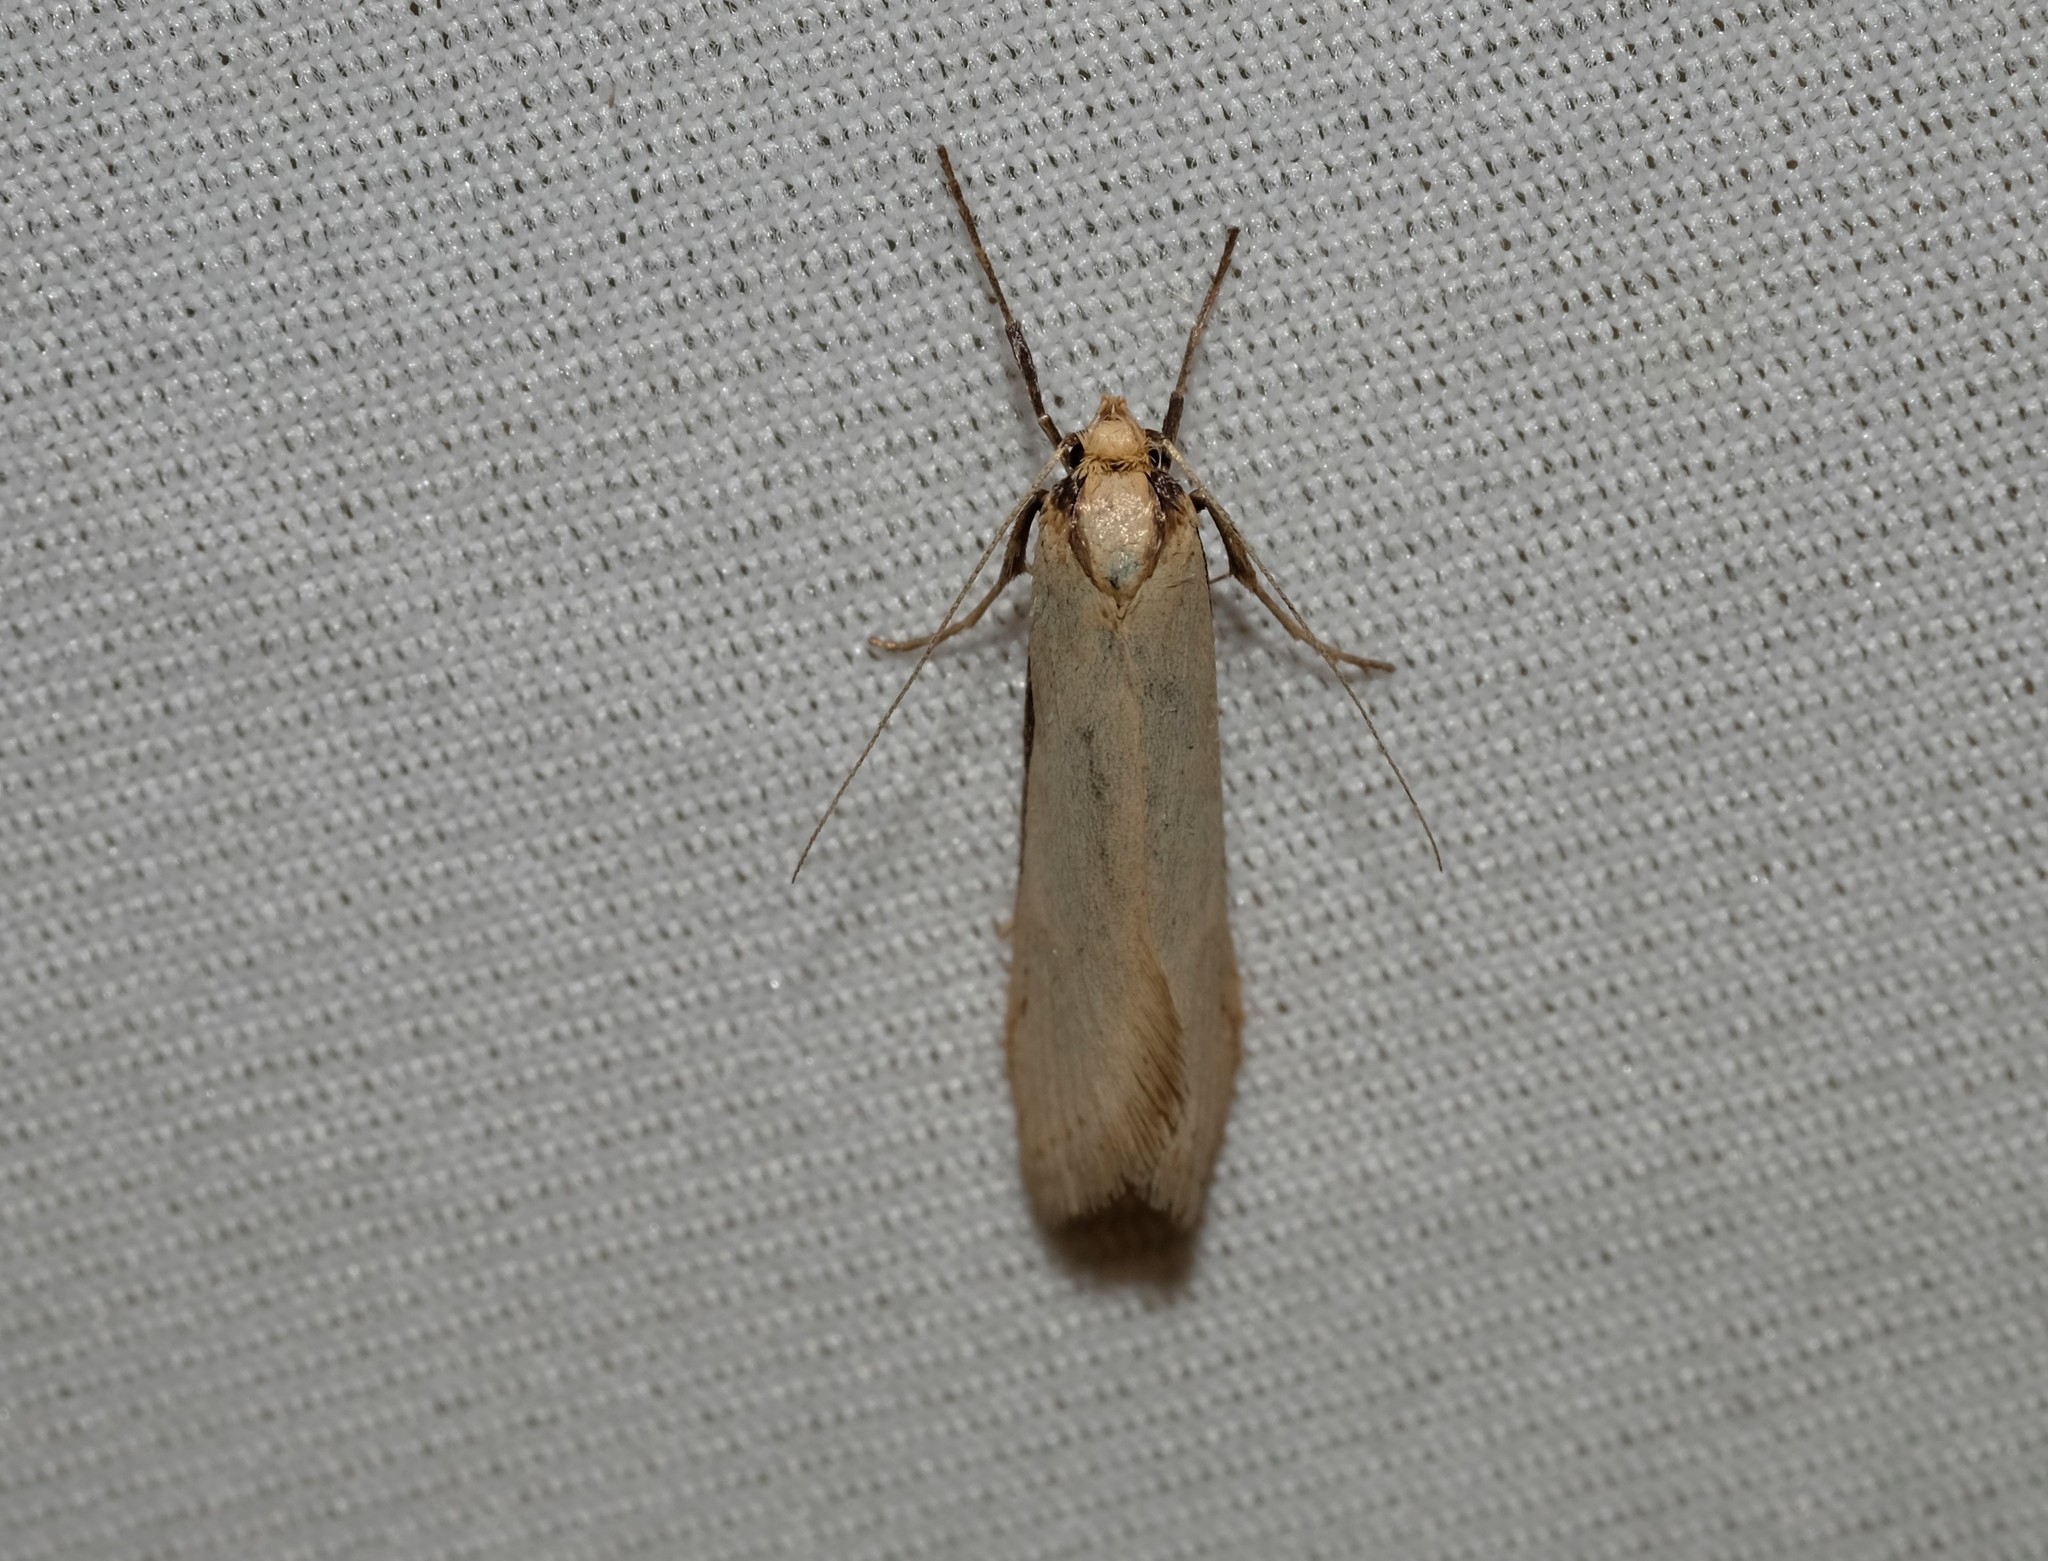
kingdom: Animalia
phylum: Arthropoda
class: Insecta
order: Lepidoptera
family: Oecophoridae
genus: Philobota
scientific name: Philobota xiphostola
